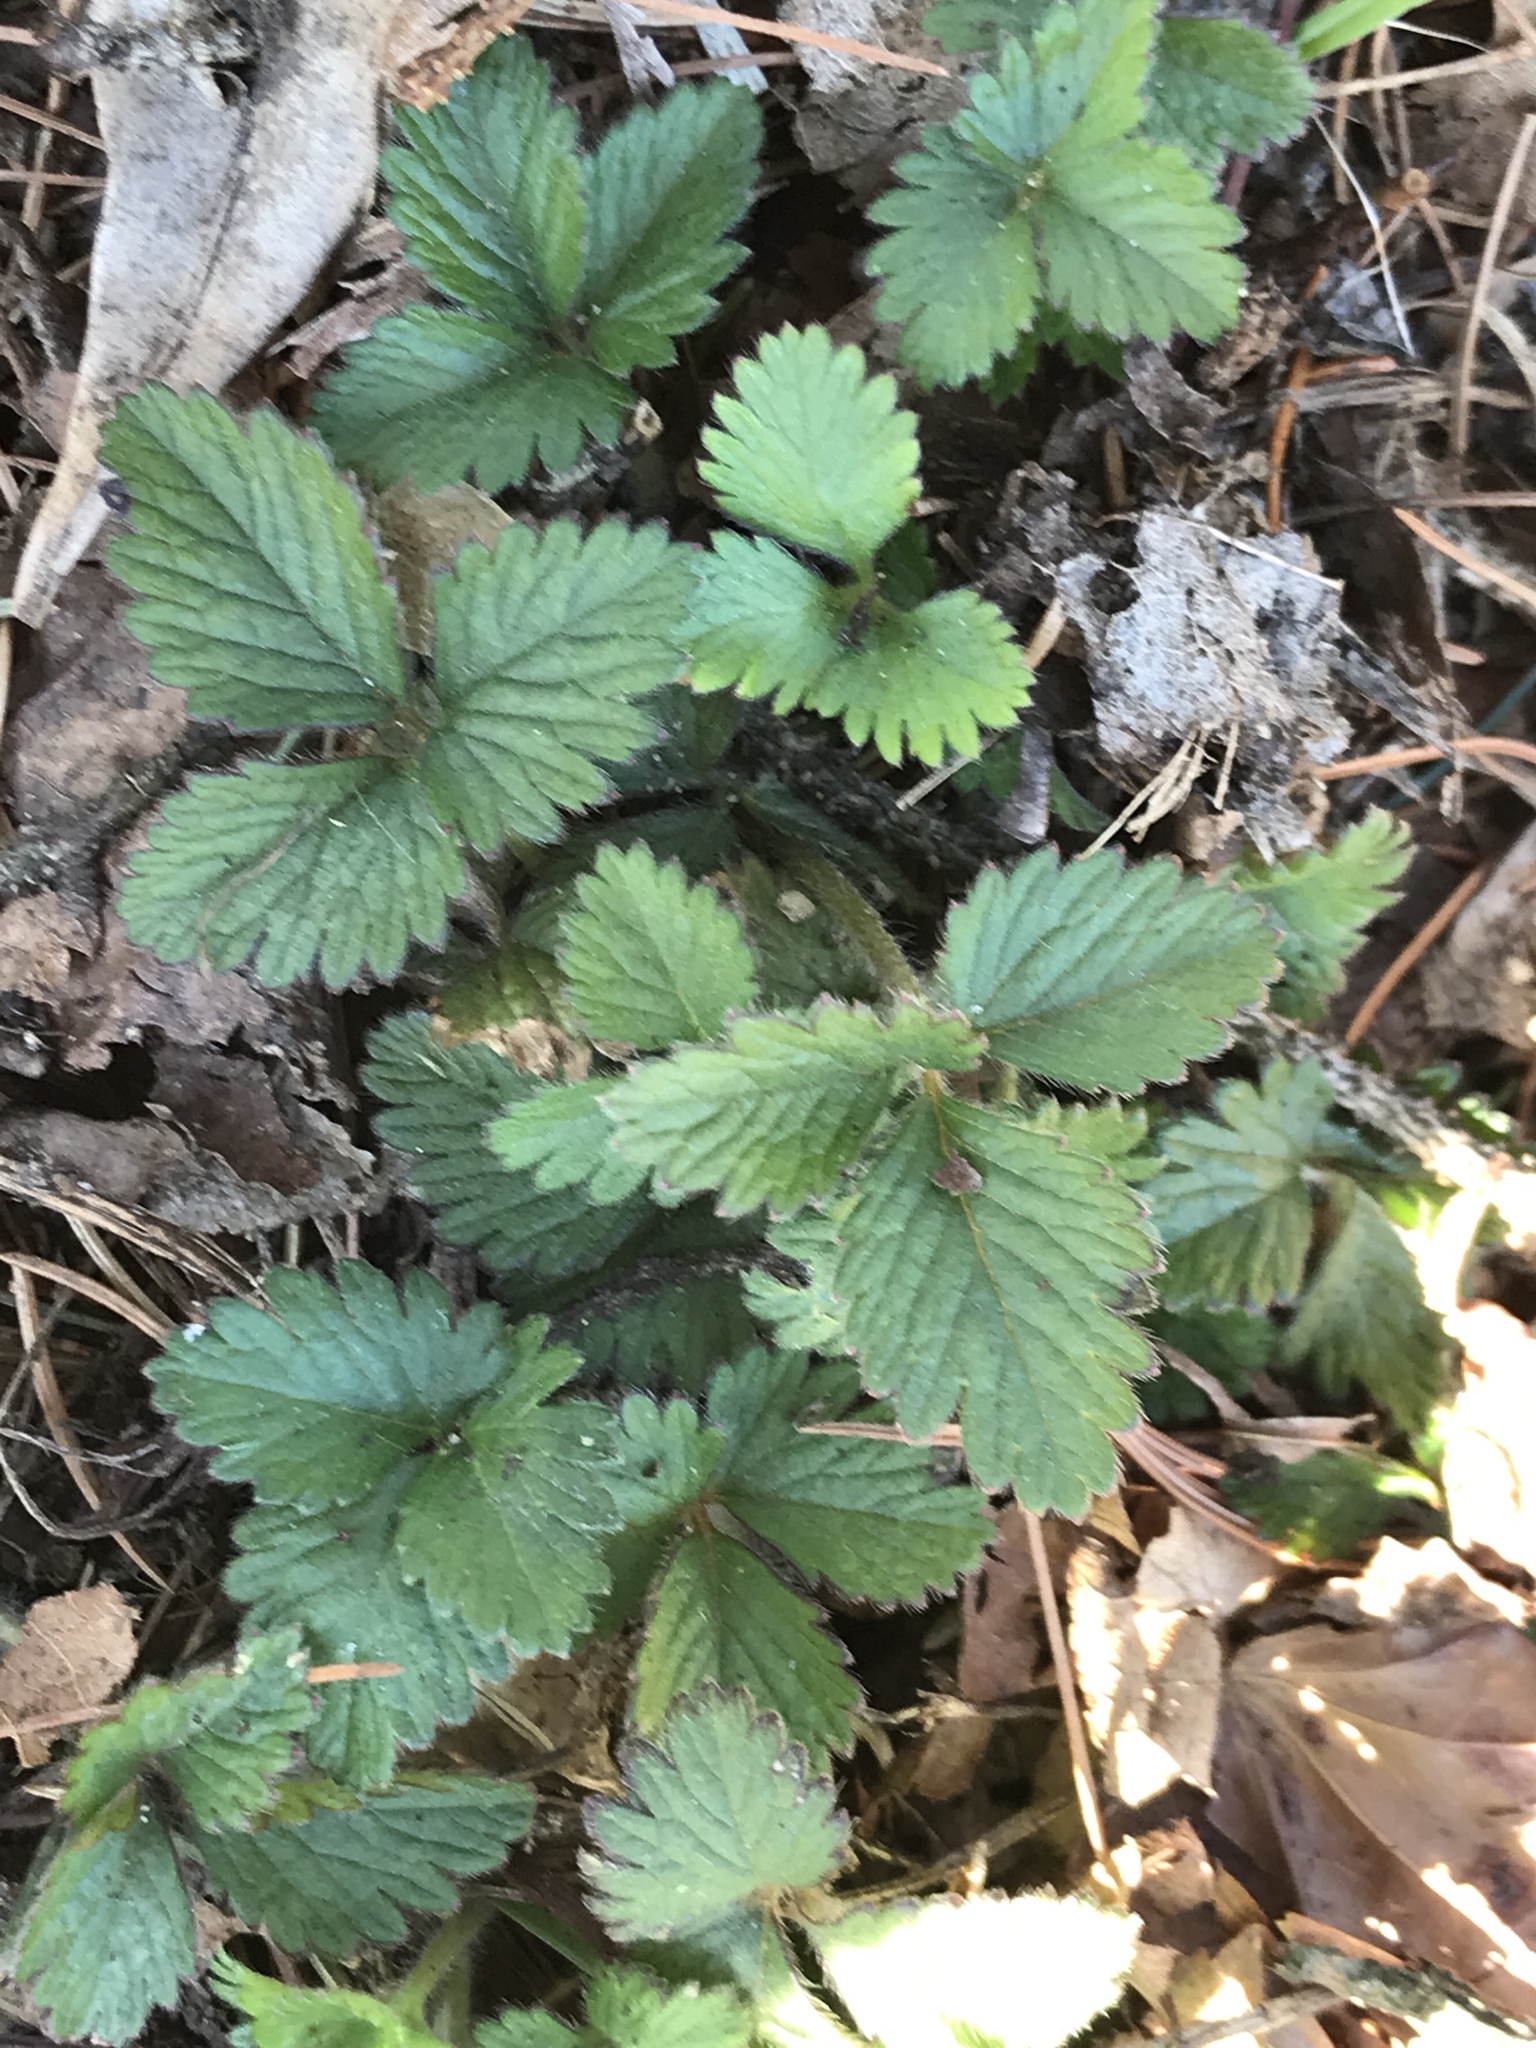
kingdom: Plantae
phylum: Tracheophyta
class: Magnoliopsida
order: Rosales
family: Rosaceae
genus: Potentilla
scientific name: Potentilla indica
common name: Yellow-flowered strawberry
